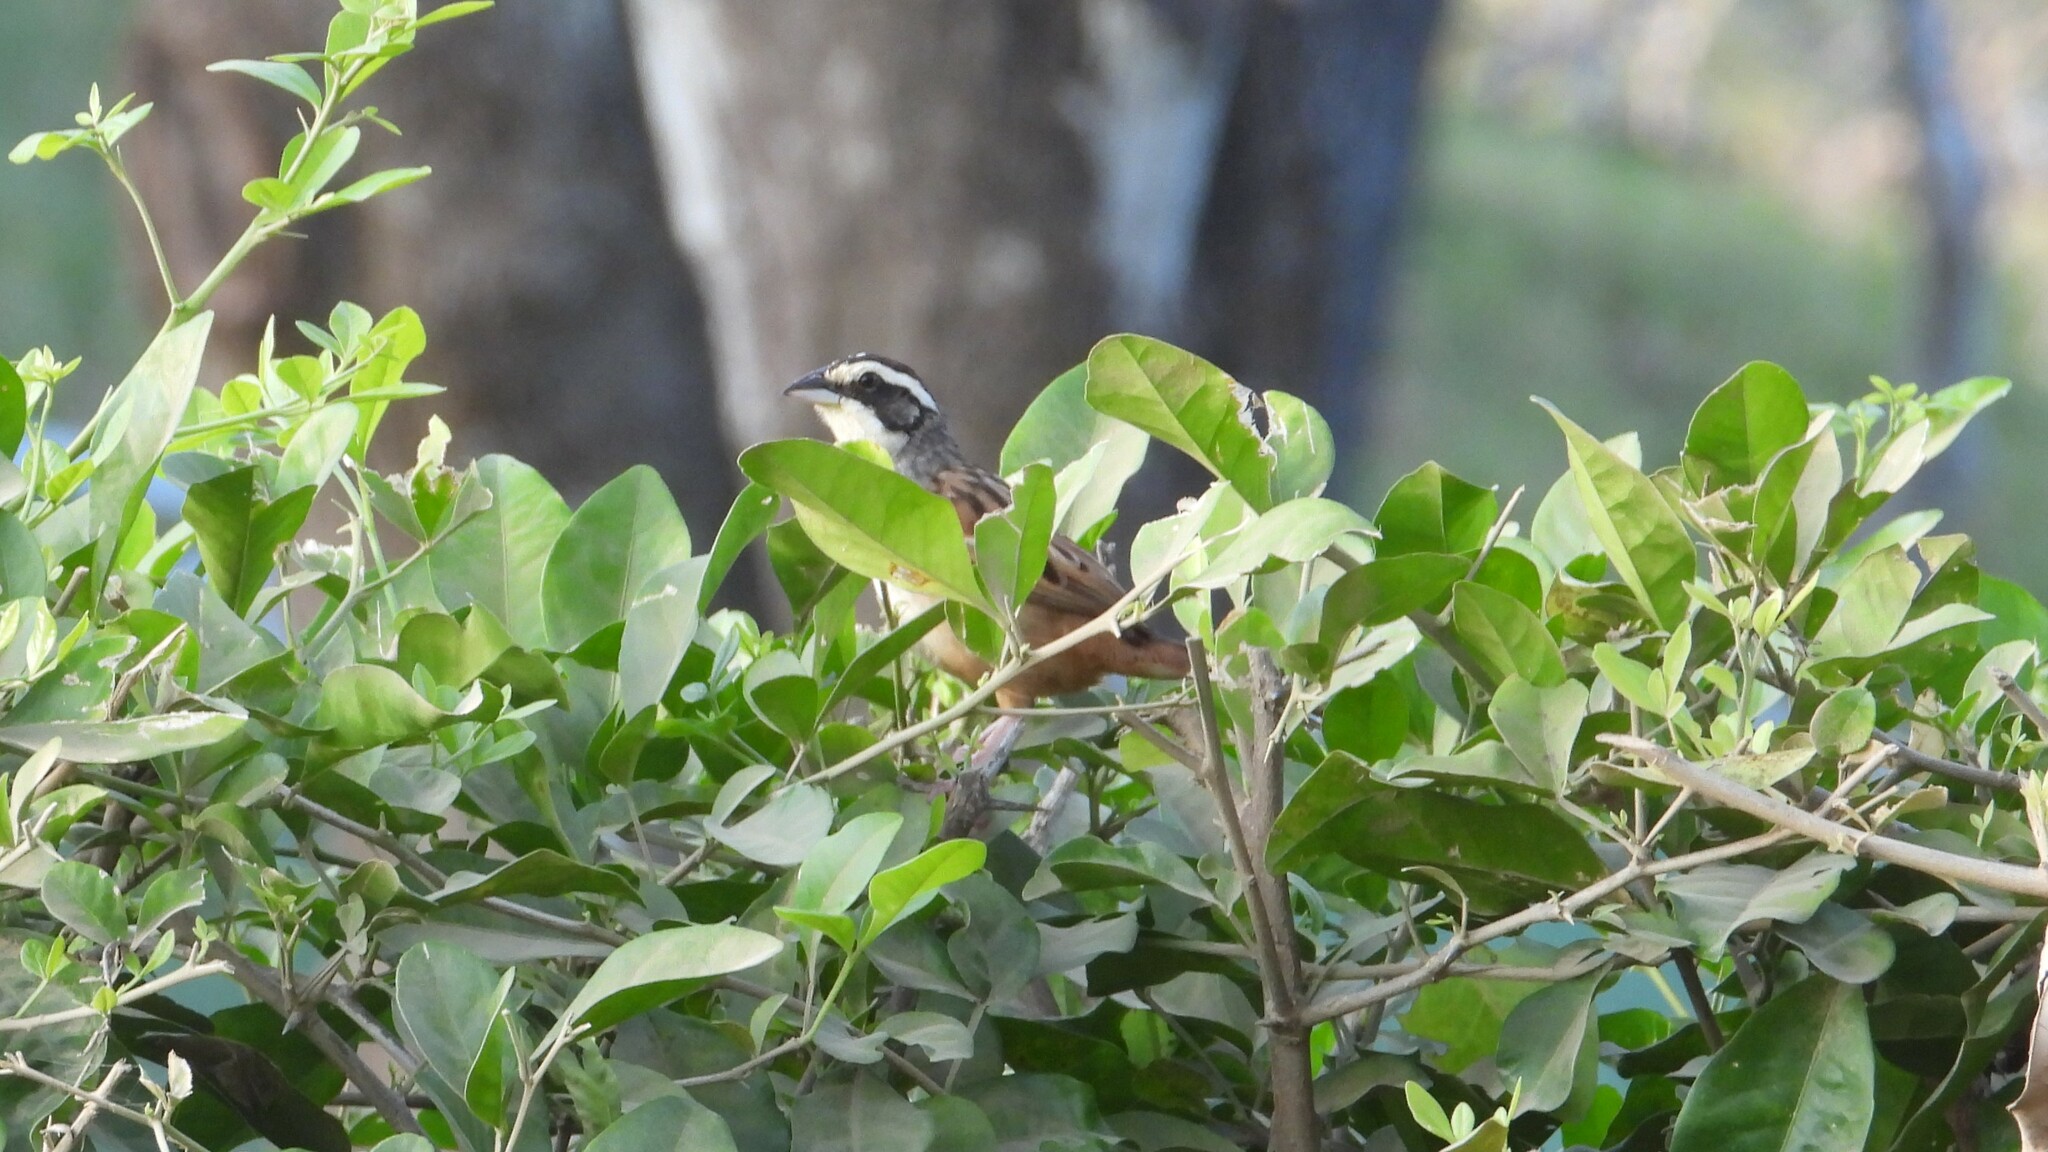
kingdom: Animalia
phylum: Chordata
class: Aves
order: Passeriformes
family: Passerellidae
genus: Peucaea
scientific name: Peucaea ruficauda
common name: Stripe-headed sparrow
